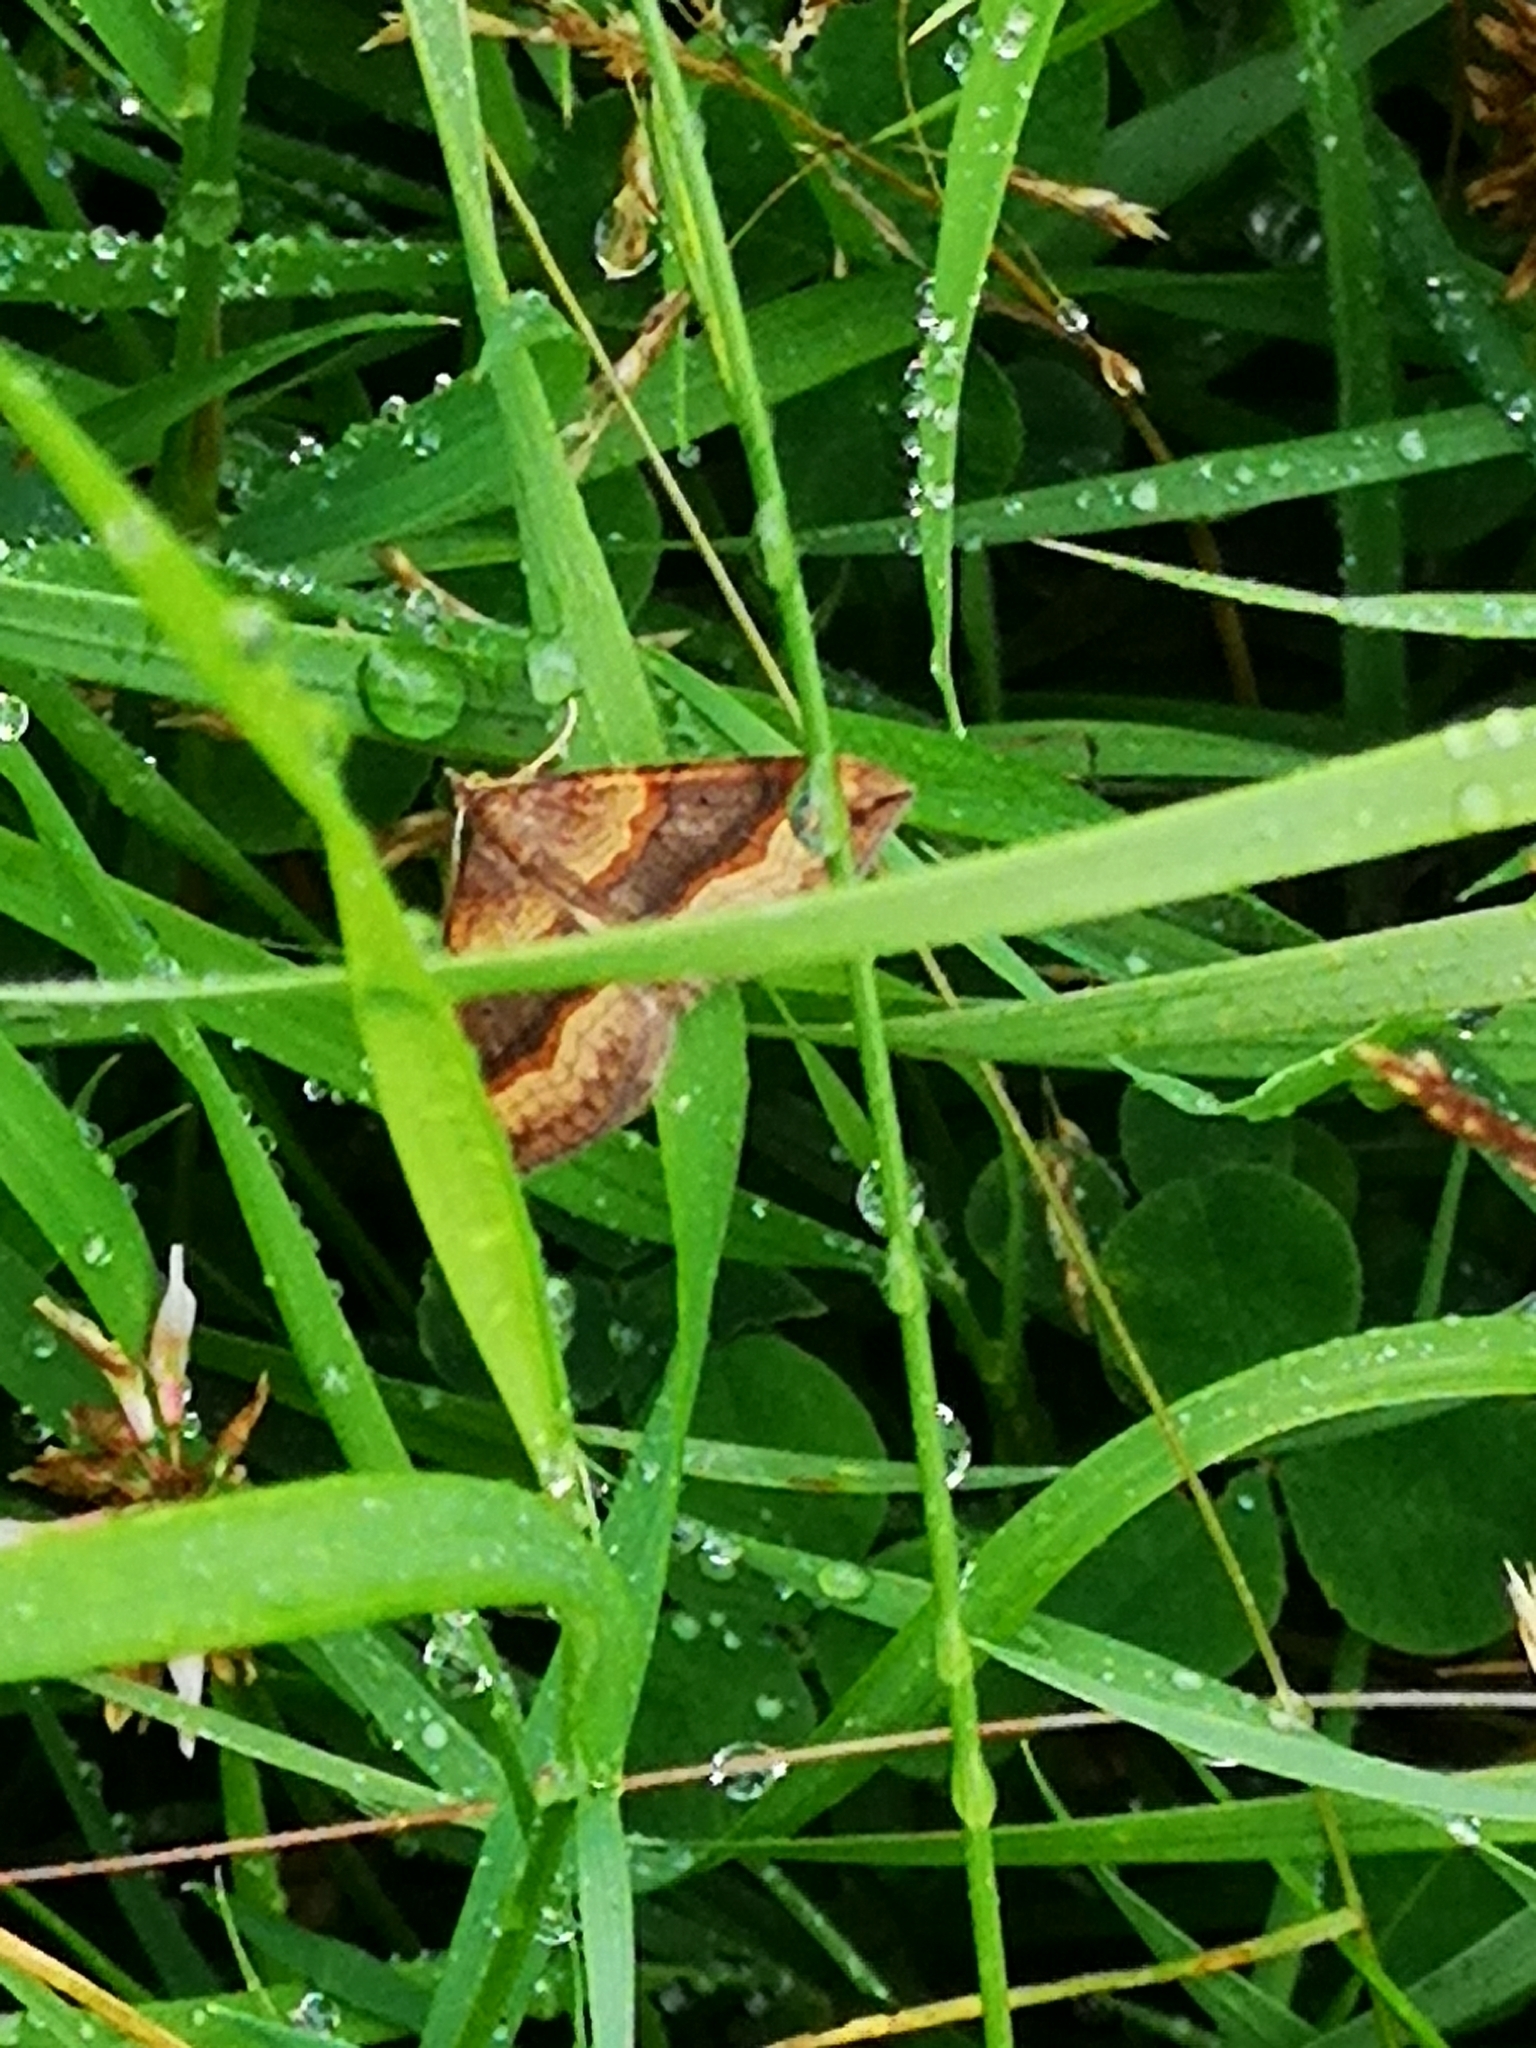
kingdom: Animalia
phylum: Arthropoda
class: Insecta
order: Lepidoptera
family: Geometridae
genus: Scotopteryx
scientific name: Scotopteryx chenopodiata
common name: Shaded broad-bar
